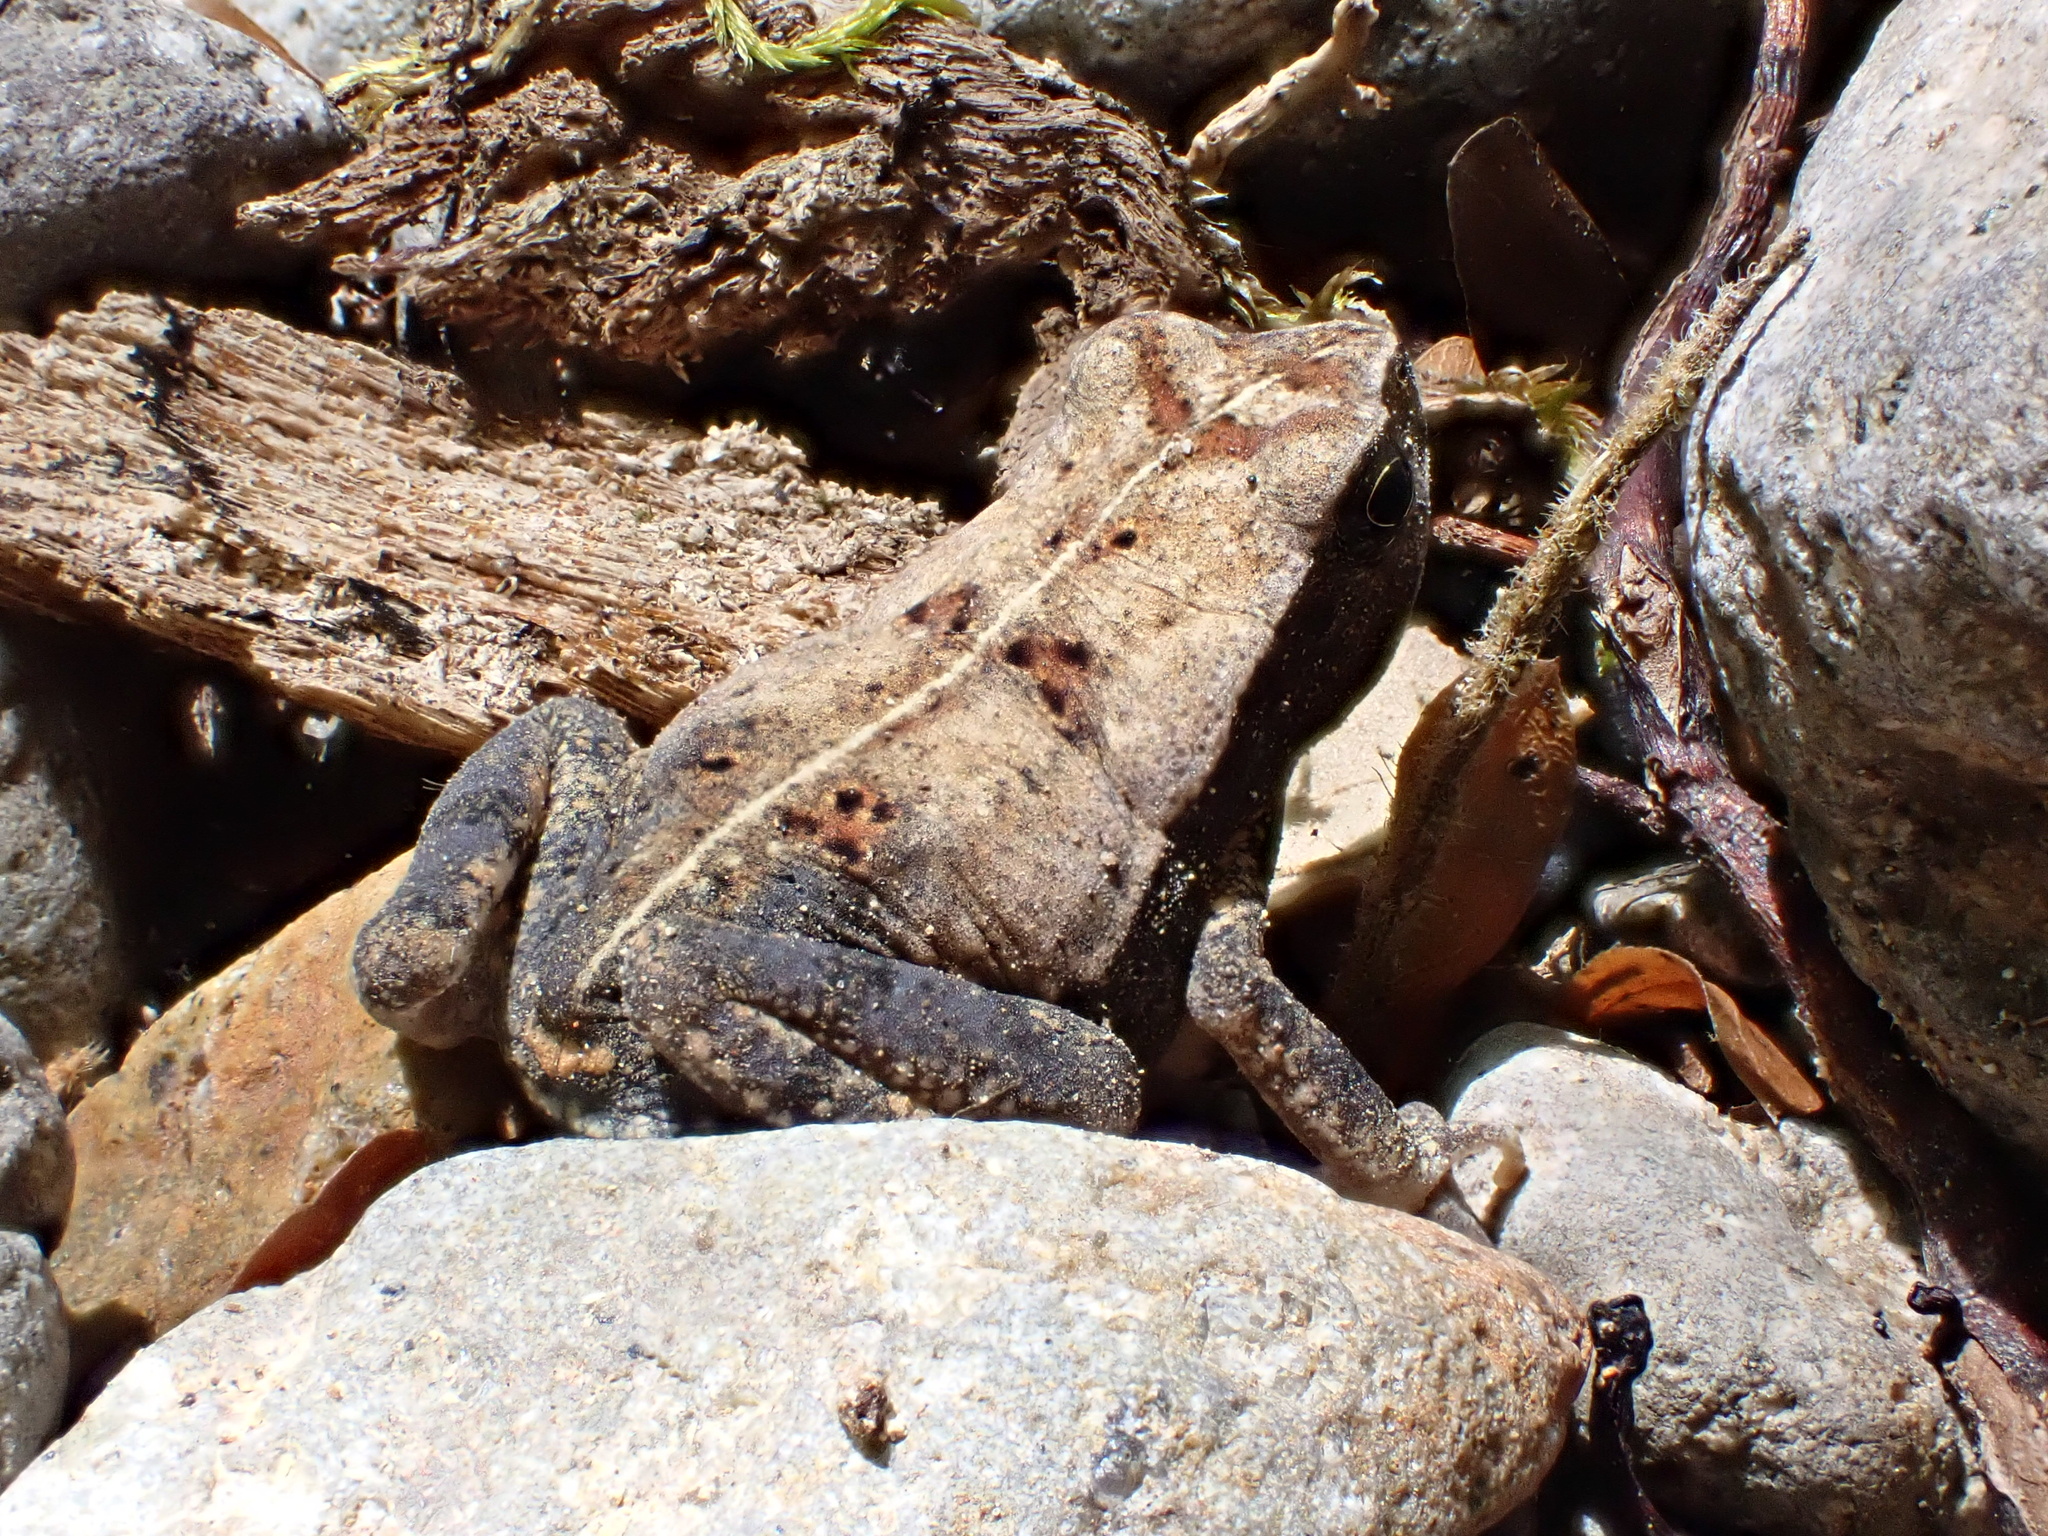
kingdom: Animalia
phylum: Chordata
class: Amphibia
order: Anura
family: Bufonidae
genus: Rhaebo
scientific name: Rhaebo haematiticus
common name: Truando toad
